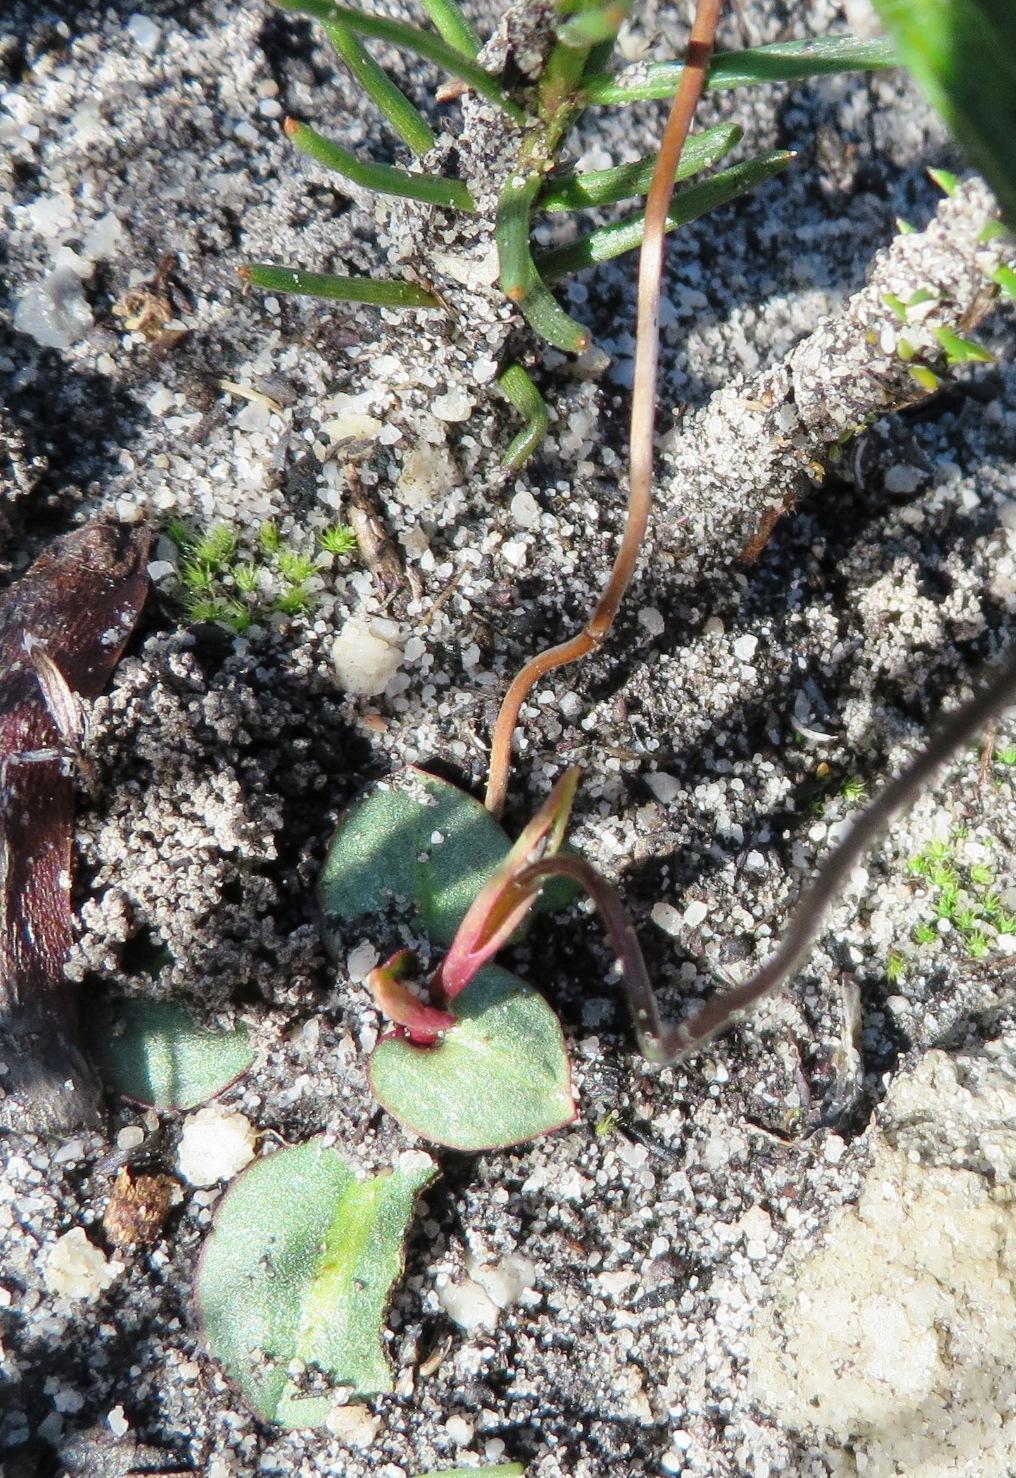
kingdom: Plantae
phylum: Tracheophyta
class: Liliopsida
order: Asparagales
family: Orchidaceae
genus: Disa
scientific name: Disa obliqua
